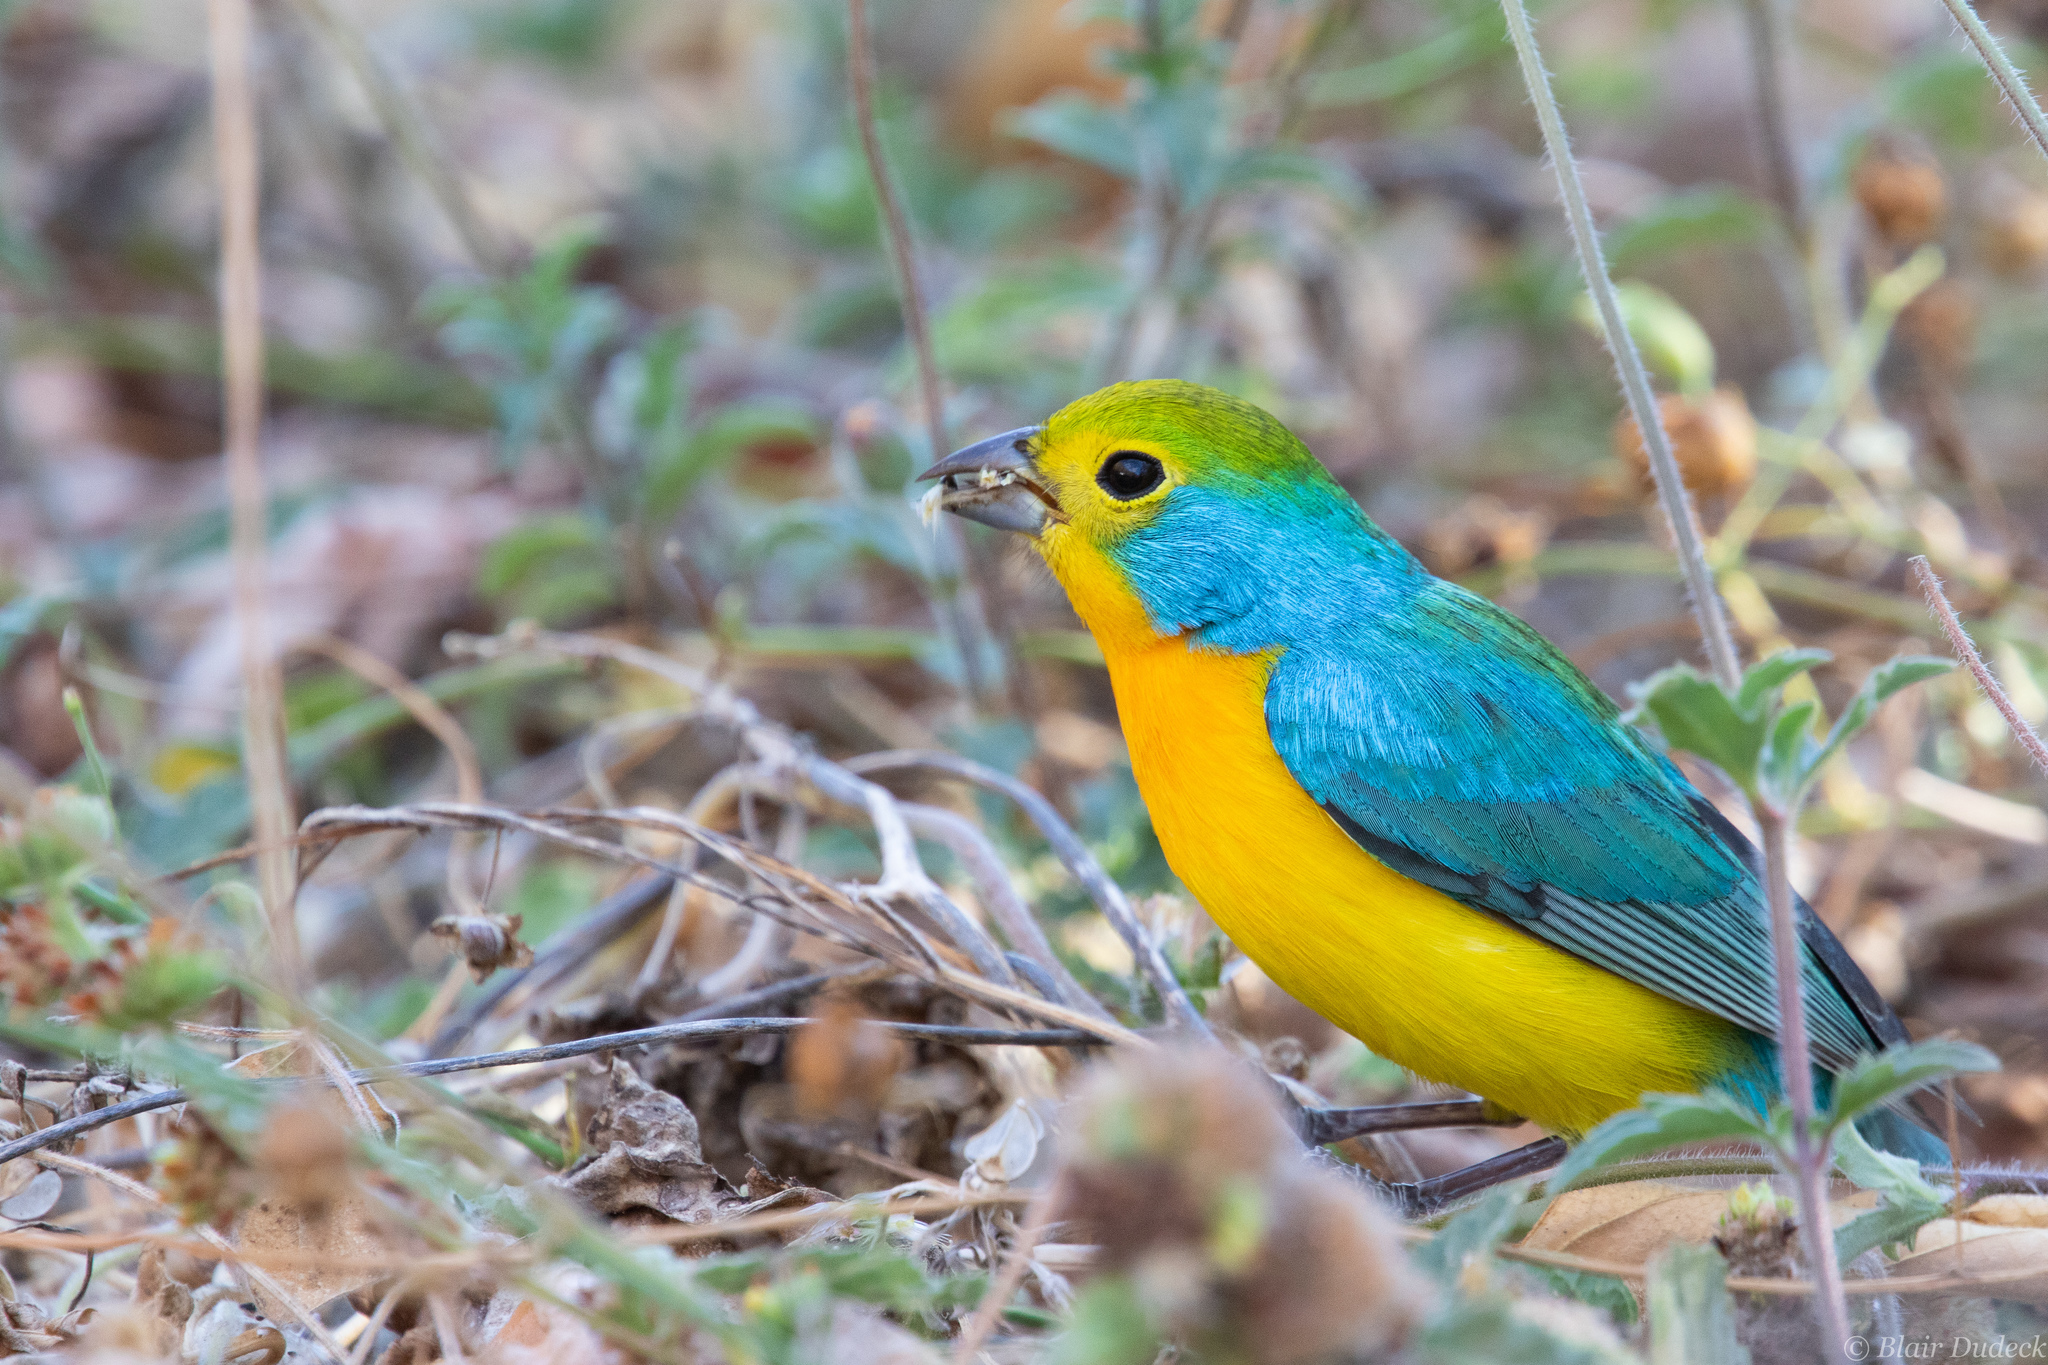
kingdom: Animalia
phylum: Chordata
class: Aves
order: Passeriformes
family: Cardinalidae
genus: Passerina
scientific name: Passerina leclancherii
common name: Orange-breasted bunting
